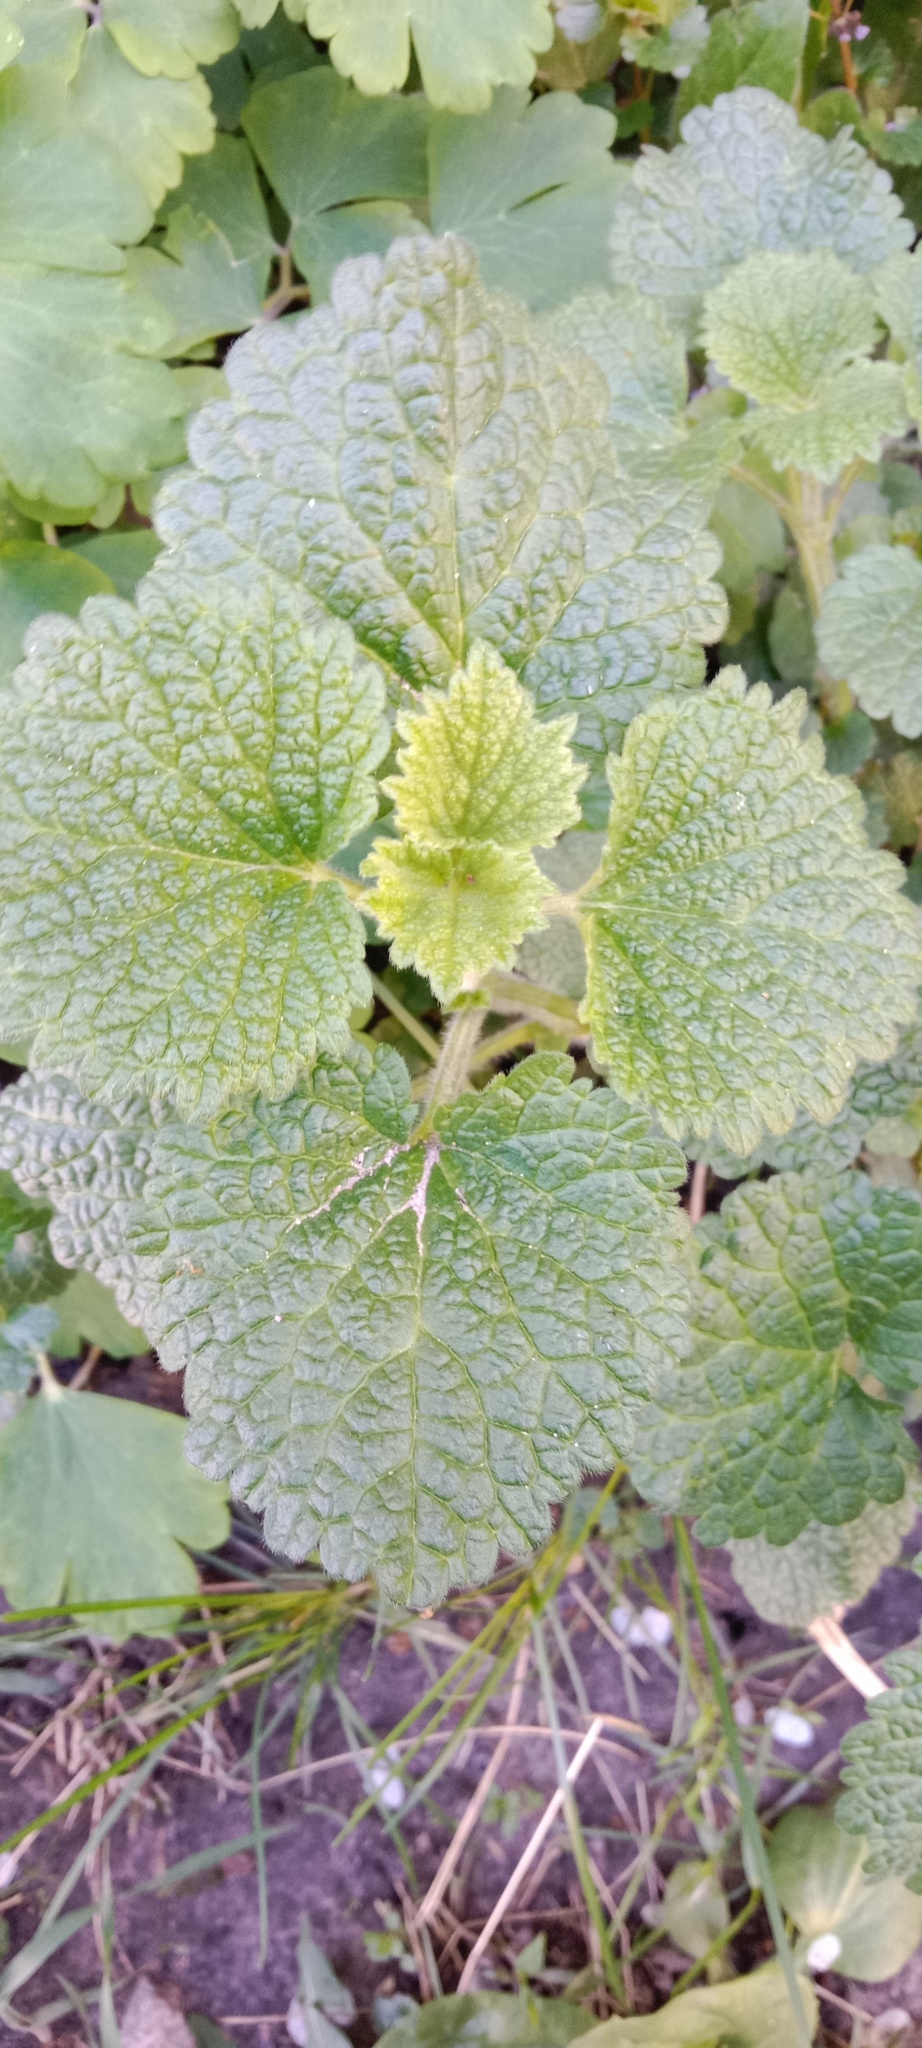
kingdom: Plantae
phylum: Tracheophyta
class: Magnoliopsida
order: Lamiales
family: Lamiaceae
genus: Ballota
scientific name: Ballota nigra
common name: Black horehound
